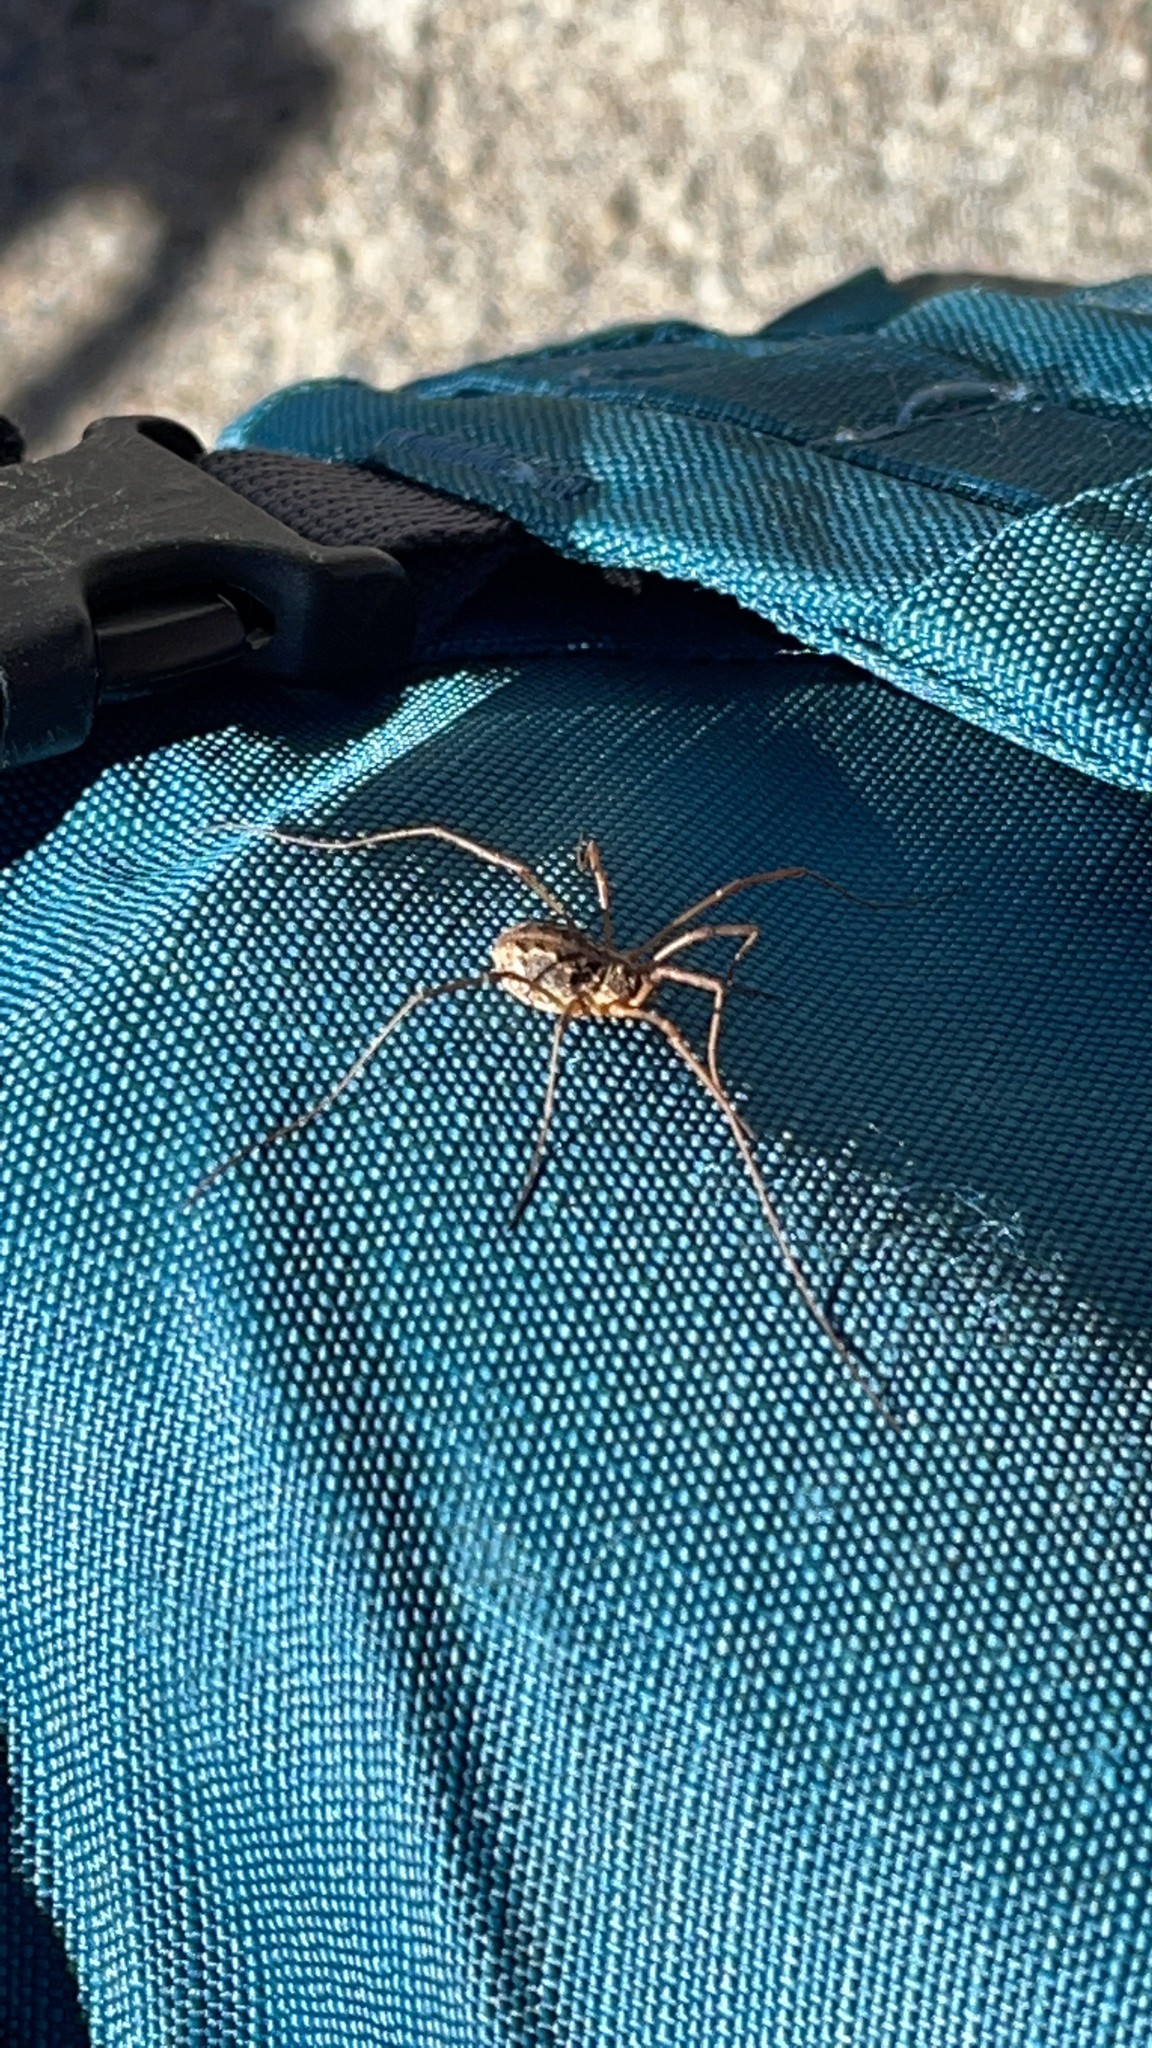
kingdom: Animalia
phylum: Arthropoda
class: Arachnida
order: Opiliones
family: Phalangiidae
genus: Mitopus
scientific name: Mitopus morio
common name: Saddleback harvestman
